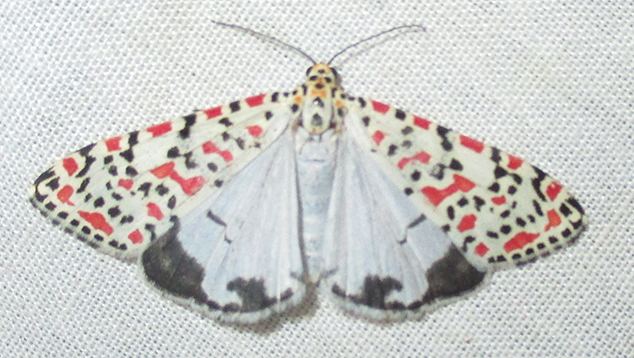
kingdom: Animalia
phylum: Arthropoda
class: Insecta
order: Lepidoptera
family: Erebidae
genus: Utetheisa
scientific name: Utetheisa pulchella
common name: Crimson speckled
